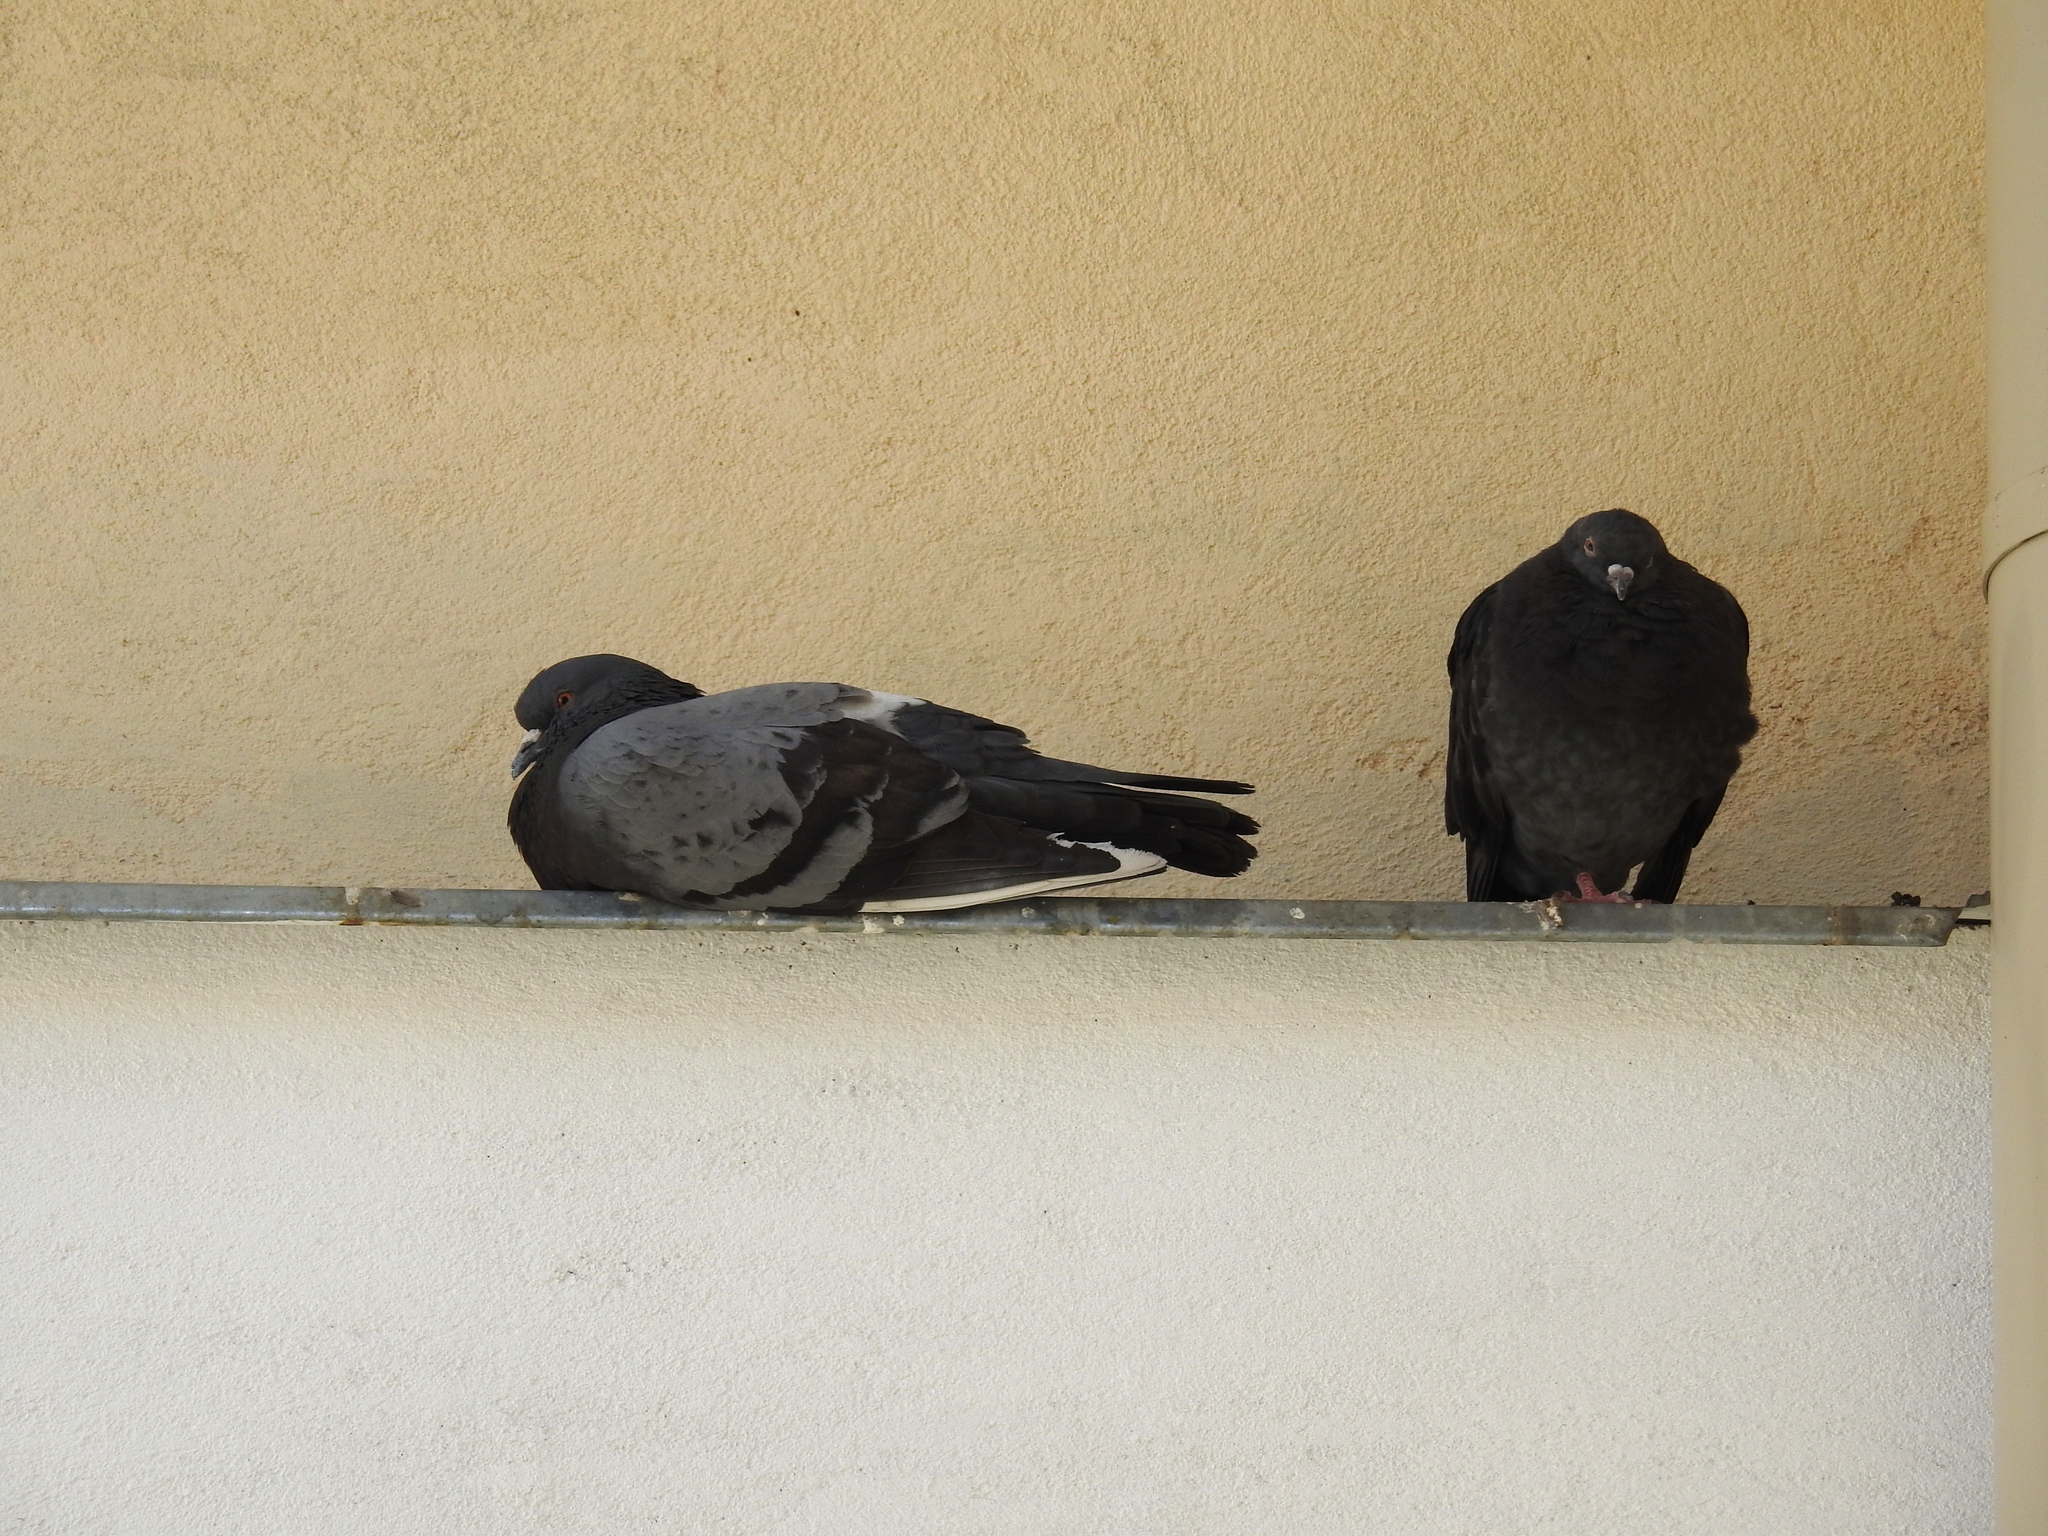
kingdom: Animalia
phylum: Chordata
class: Aves
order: Columbiformes
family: Columbidae
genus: Columba
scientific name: Columba livia
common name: Rock pigeon
